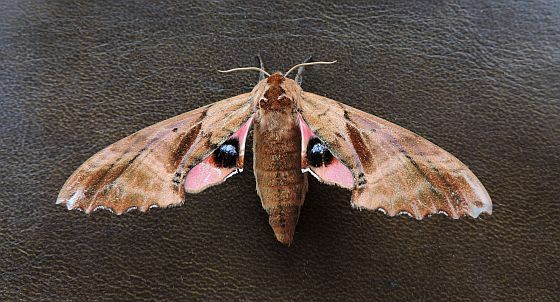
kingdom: Animalia
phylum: Arthropoda
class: Insecta
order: Lepidoptera
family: Sphingidae
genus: Paonias
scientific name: Paonias excaecata
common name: Blind-eyed sphinx
